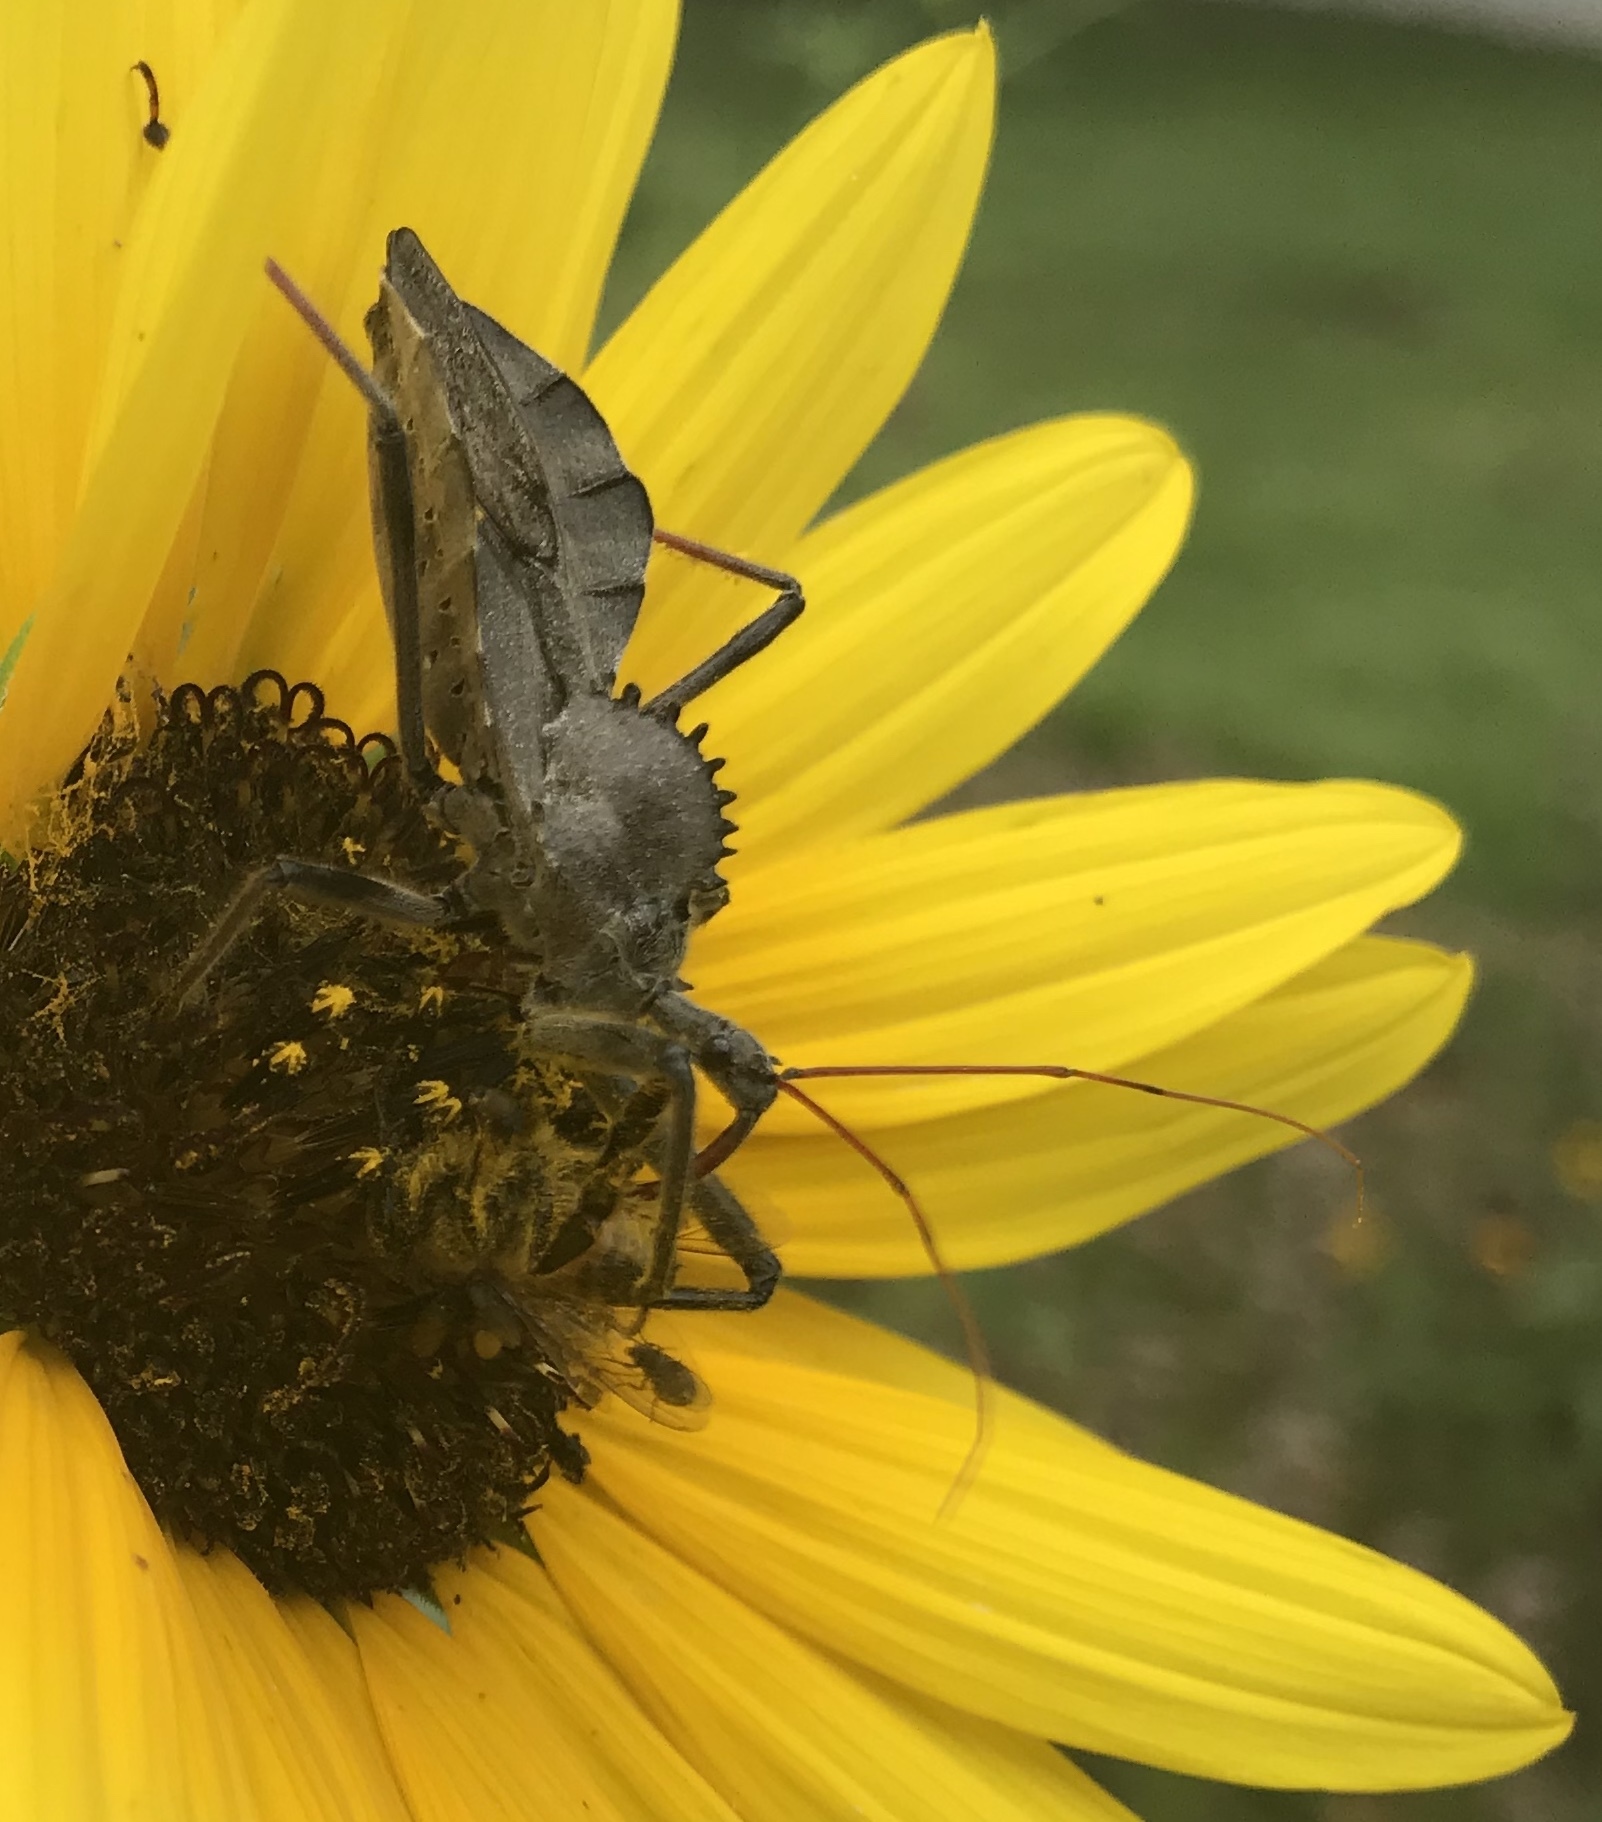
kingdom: Animalia
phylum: Arthropoda
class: Insecta
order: Hemiptera
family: Reduviidae
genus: Arilus
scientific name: Arilus cristatus
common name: North american wheel bug
